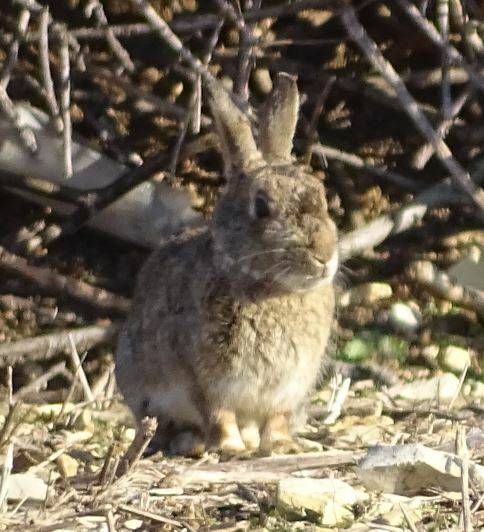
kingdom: Animalia
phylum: Chordata
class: Mammalia
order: Lagomorpha
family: Leporidae
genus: Oryctolagus
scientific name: Oryctolagus cuniculus
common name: European rabbit
